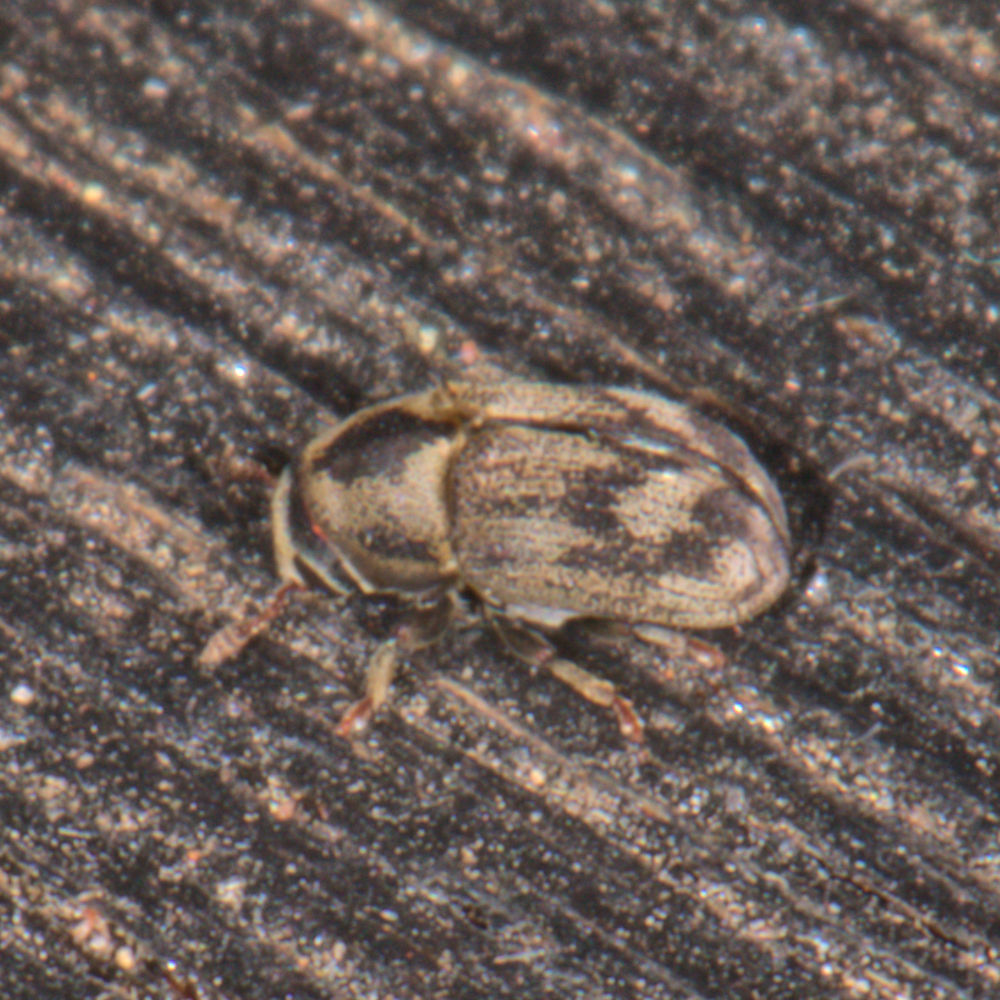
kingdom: Animalia
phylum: Arthropoda
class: Insecta
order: Coleoptera
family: Curculionidae
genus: Hylesinus
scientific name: Hylesinus aculeatus
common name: Easter-ash bark beetle
